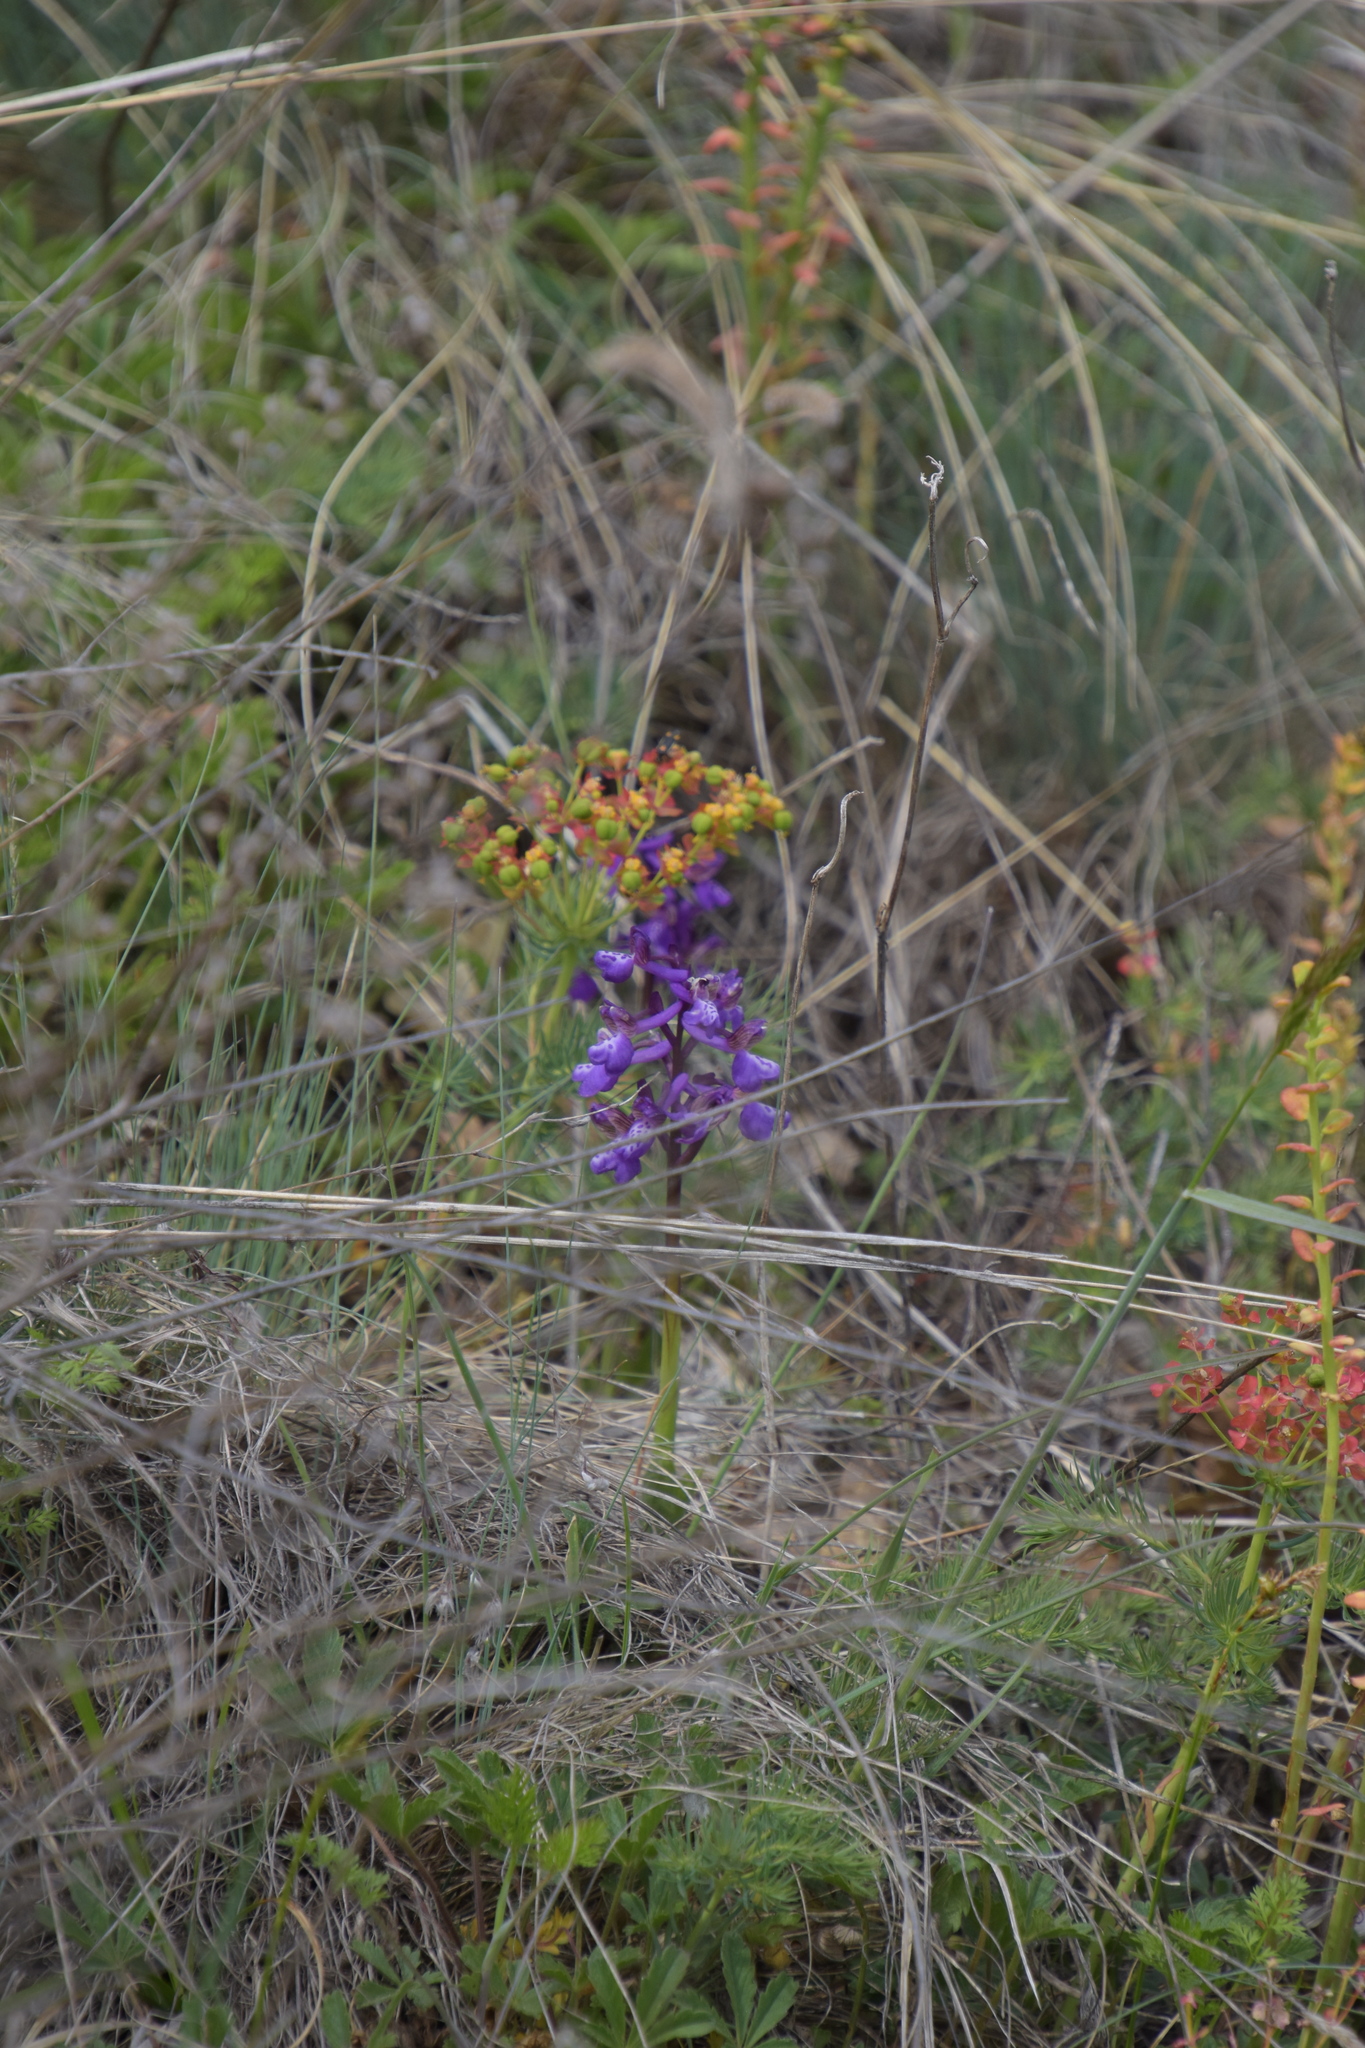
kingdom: Plantae
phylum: Tracheophyta
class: Liliopsida
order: Asparagales
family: Orchidaceae
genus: Anacamptis
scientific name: Anacamptis morio
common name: Green-winged orchid
